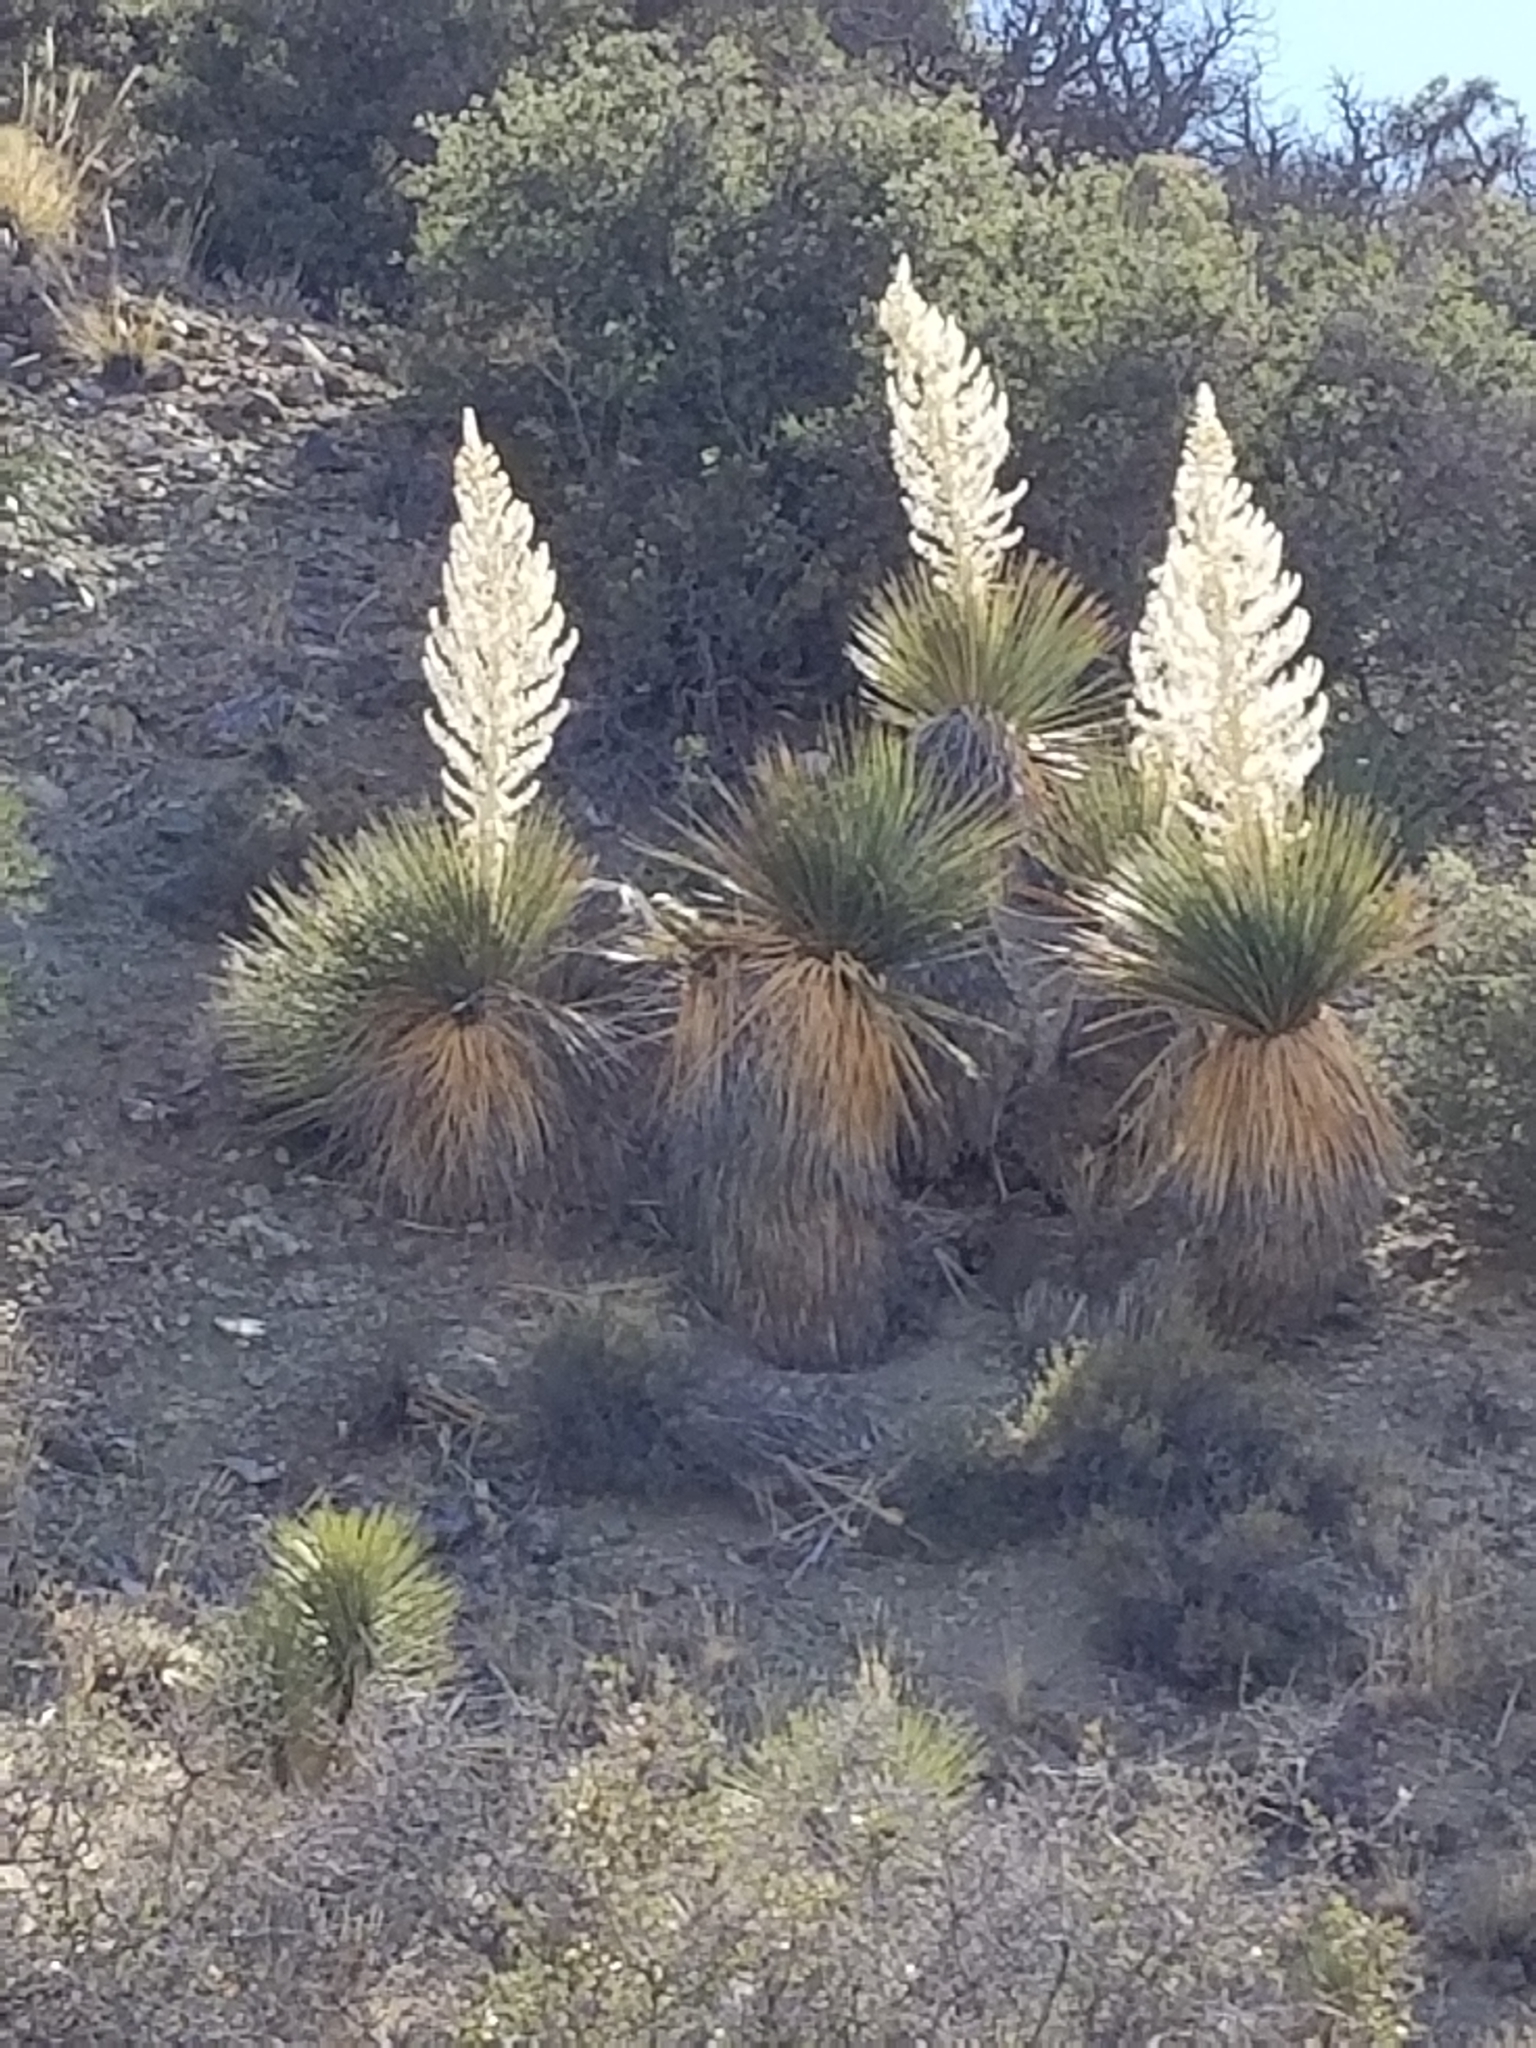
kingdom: Plantae
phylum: Tracheophyta
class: Liliopsida
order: Asparagales
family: Asparagaceae
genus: Nolina
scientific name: Nolina parryi
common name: Parry nolina
